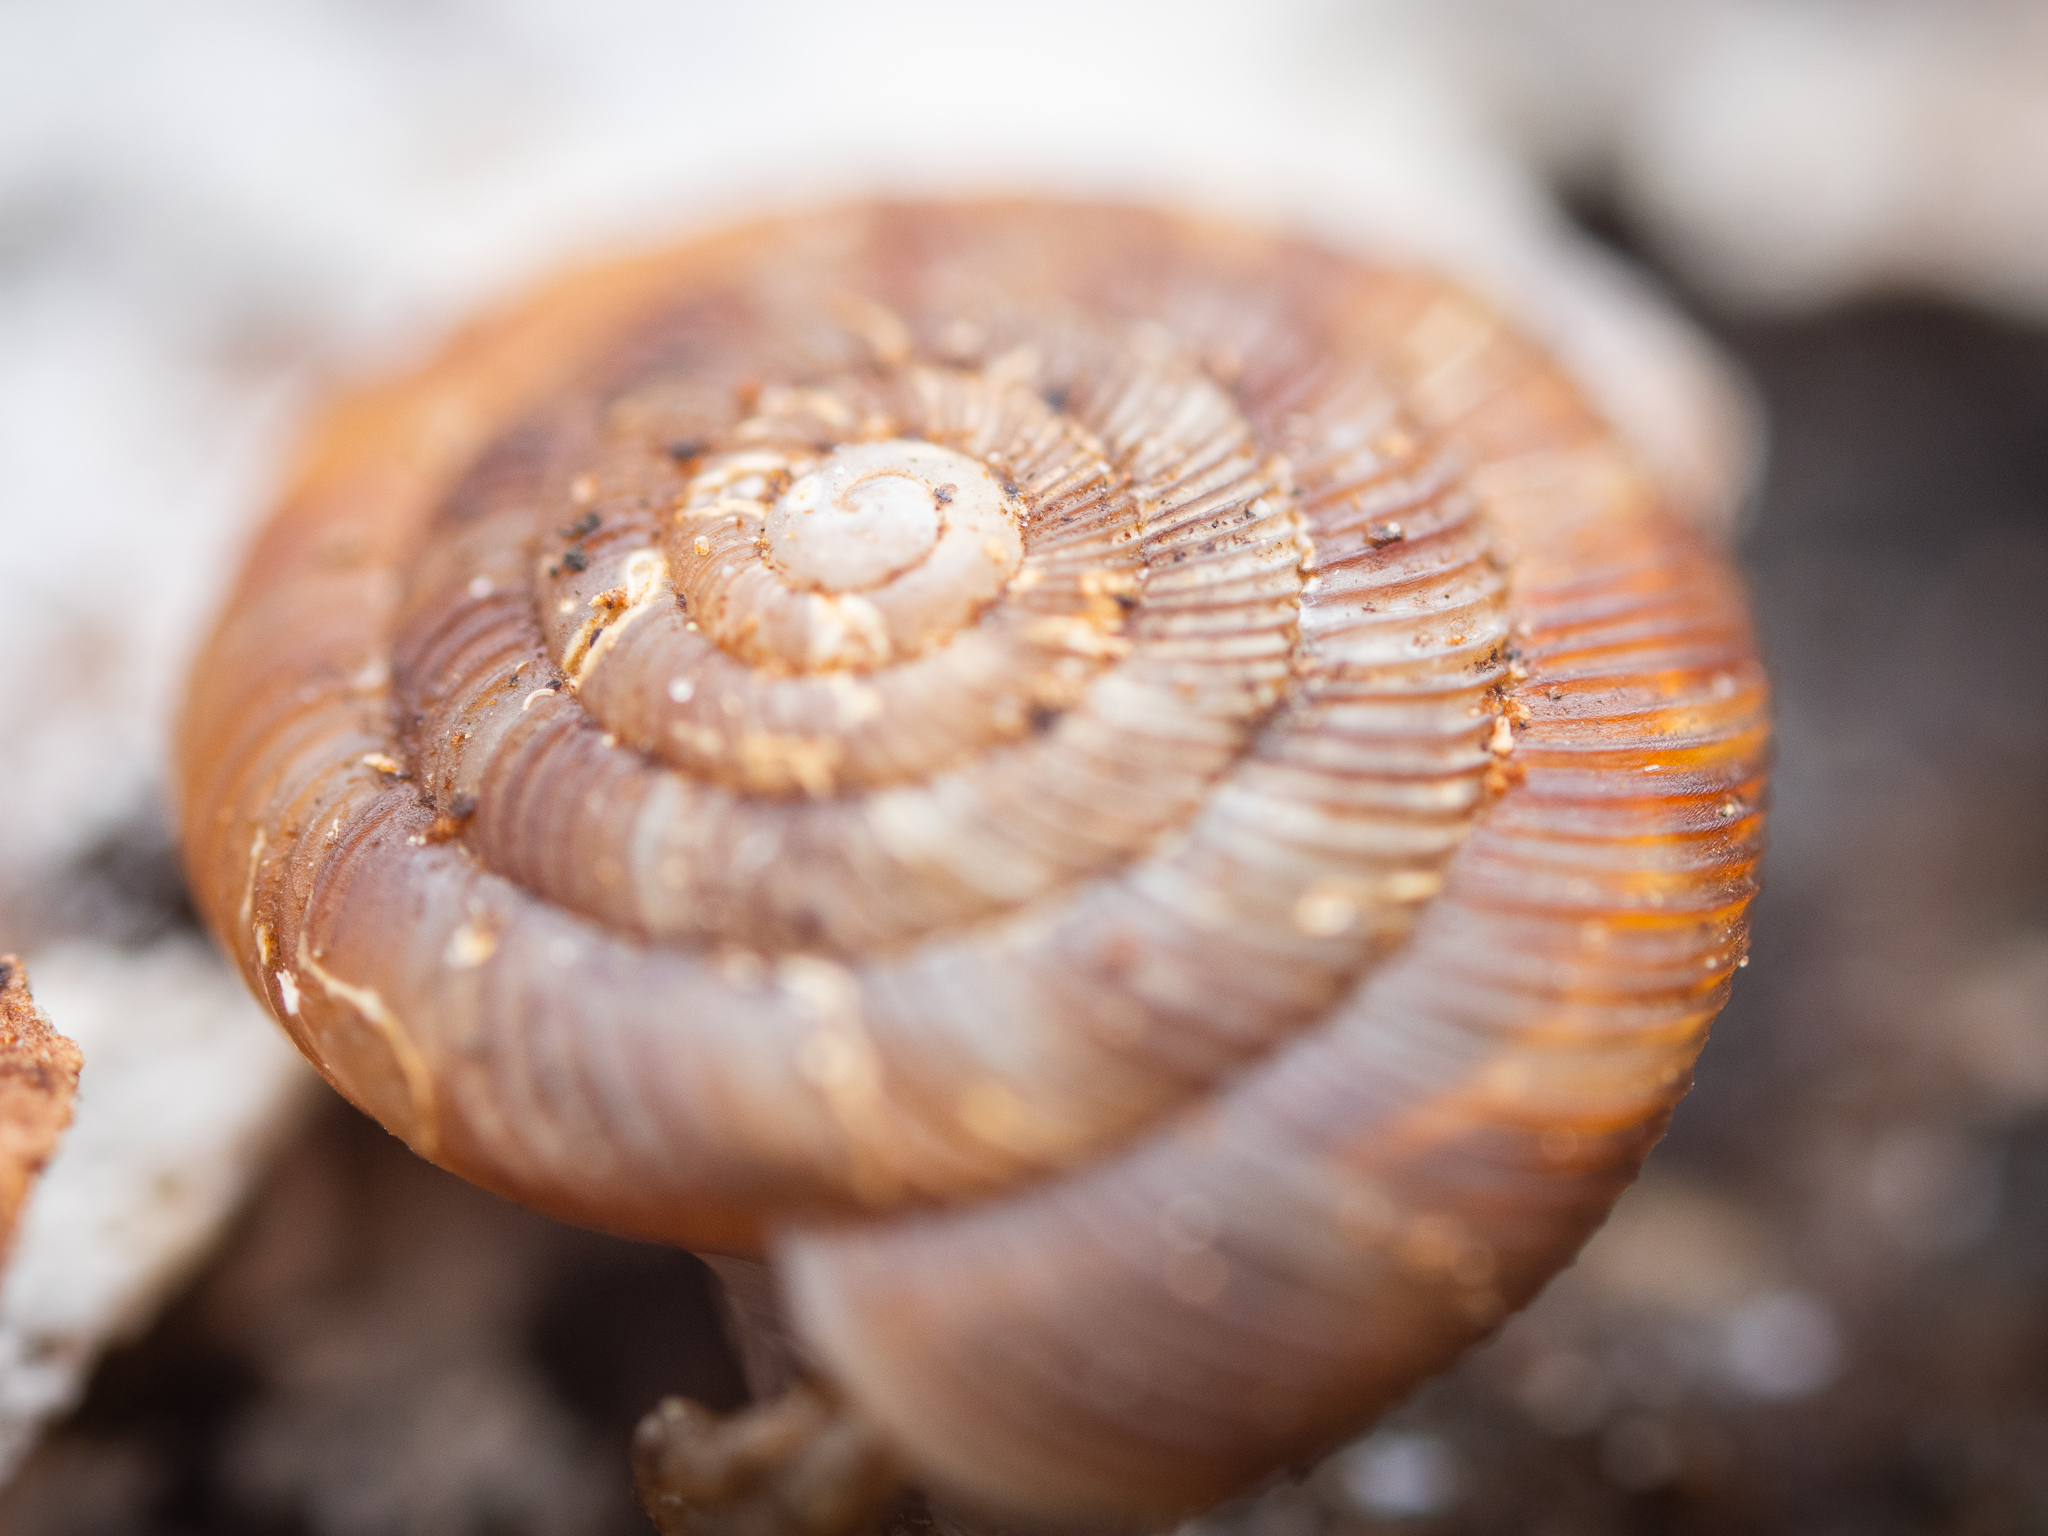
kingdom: Animalia
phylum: Mollusca
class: Gastropoda
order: Stylommatophora
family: Discidae
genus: Discus
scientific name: Discus rotundatus
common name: Rounded snail
